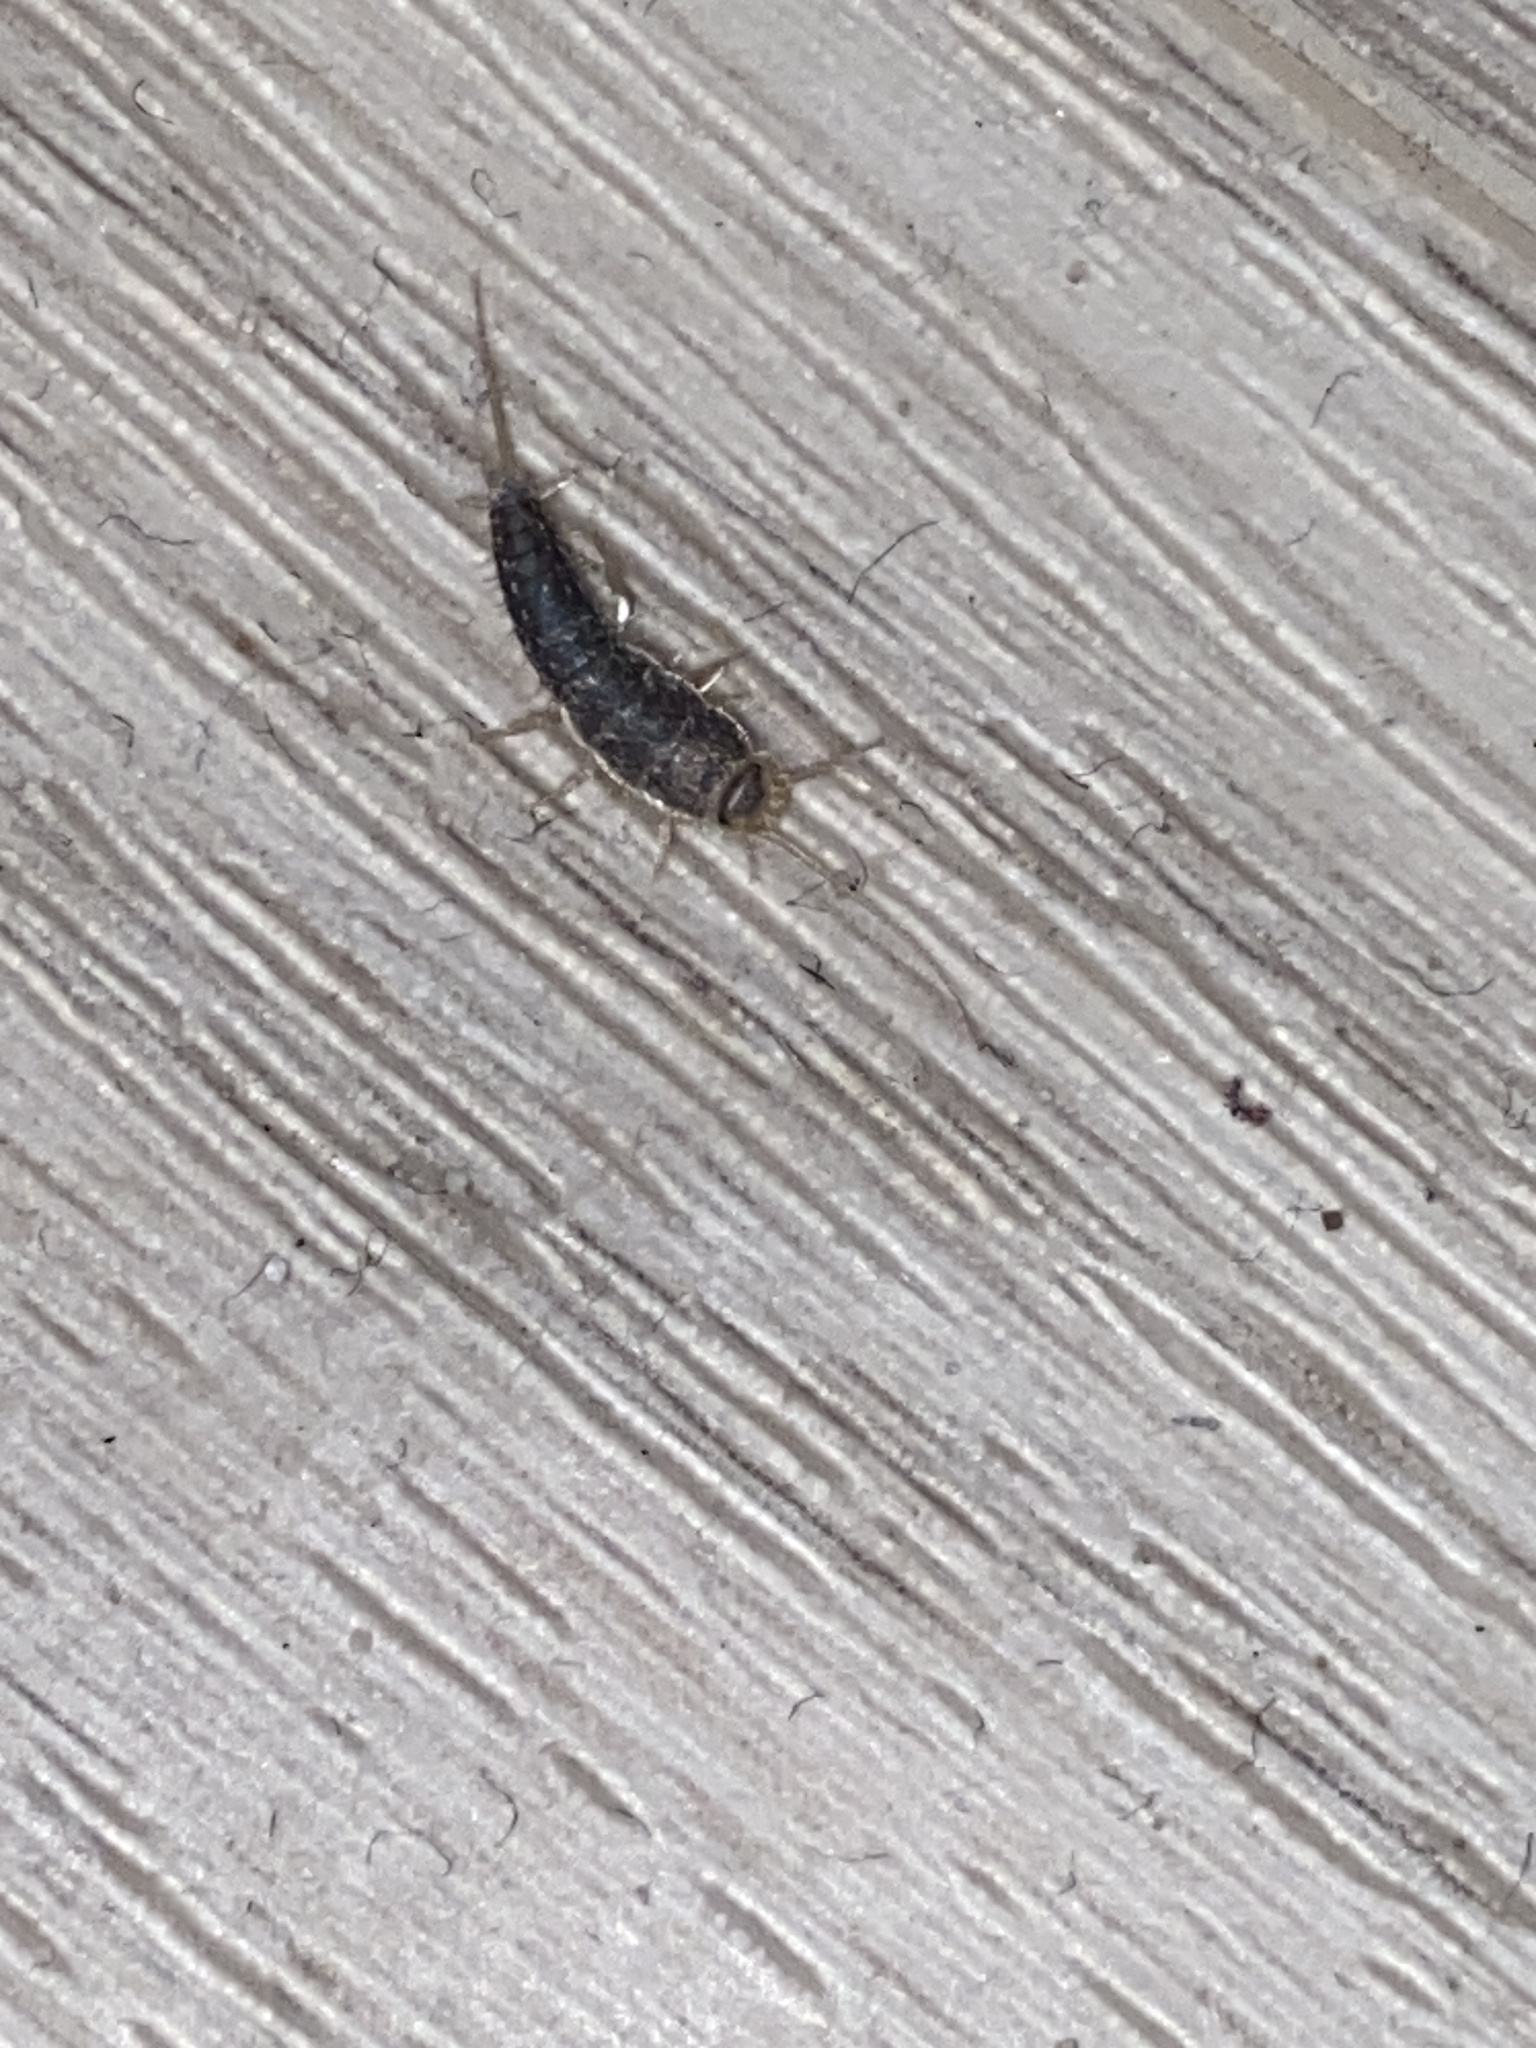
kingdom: Animalia
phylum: Arthropoda
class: Insecta
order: Zygentoma
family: Lepismatidae
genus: Ctenolepisma
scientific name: Ctenolepisma longicaudatum
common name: Silverfish
